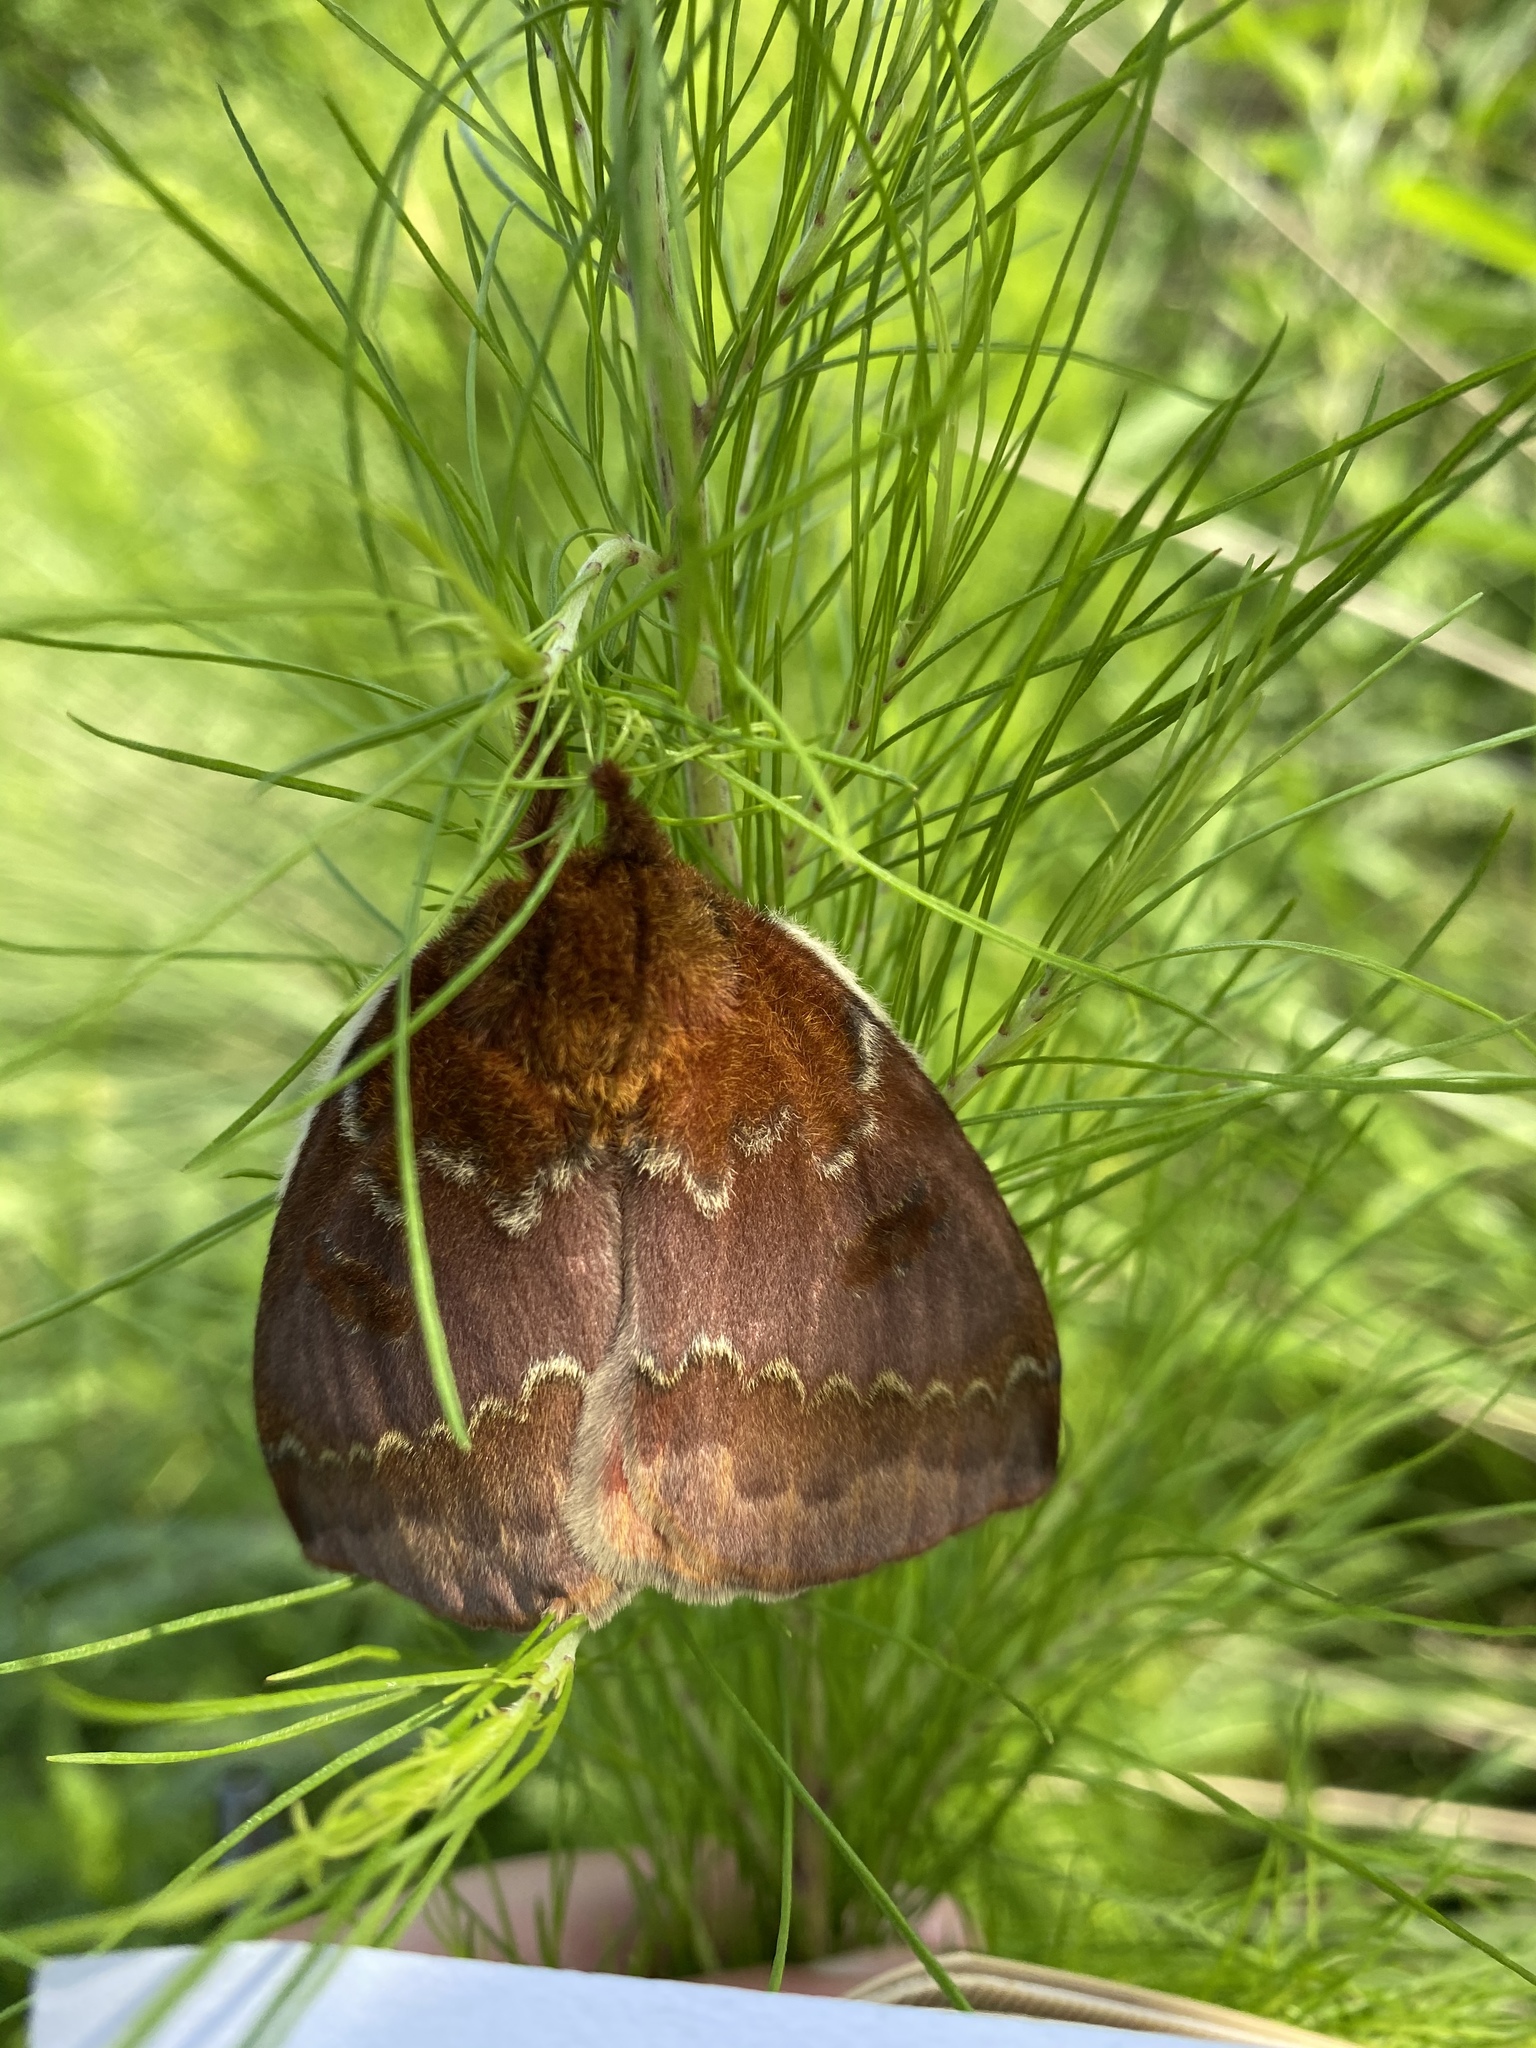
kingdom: Animalia
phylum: Arthropoda
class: Insecta
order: Lepidoptera
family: Saturniidae
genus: Automeris
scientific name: Automeris io
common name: Io moth
